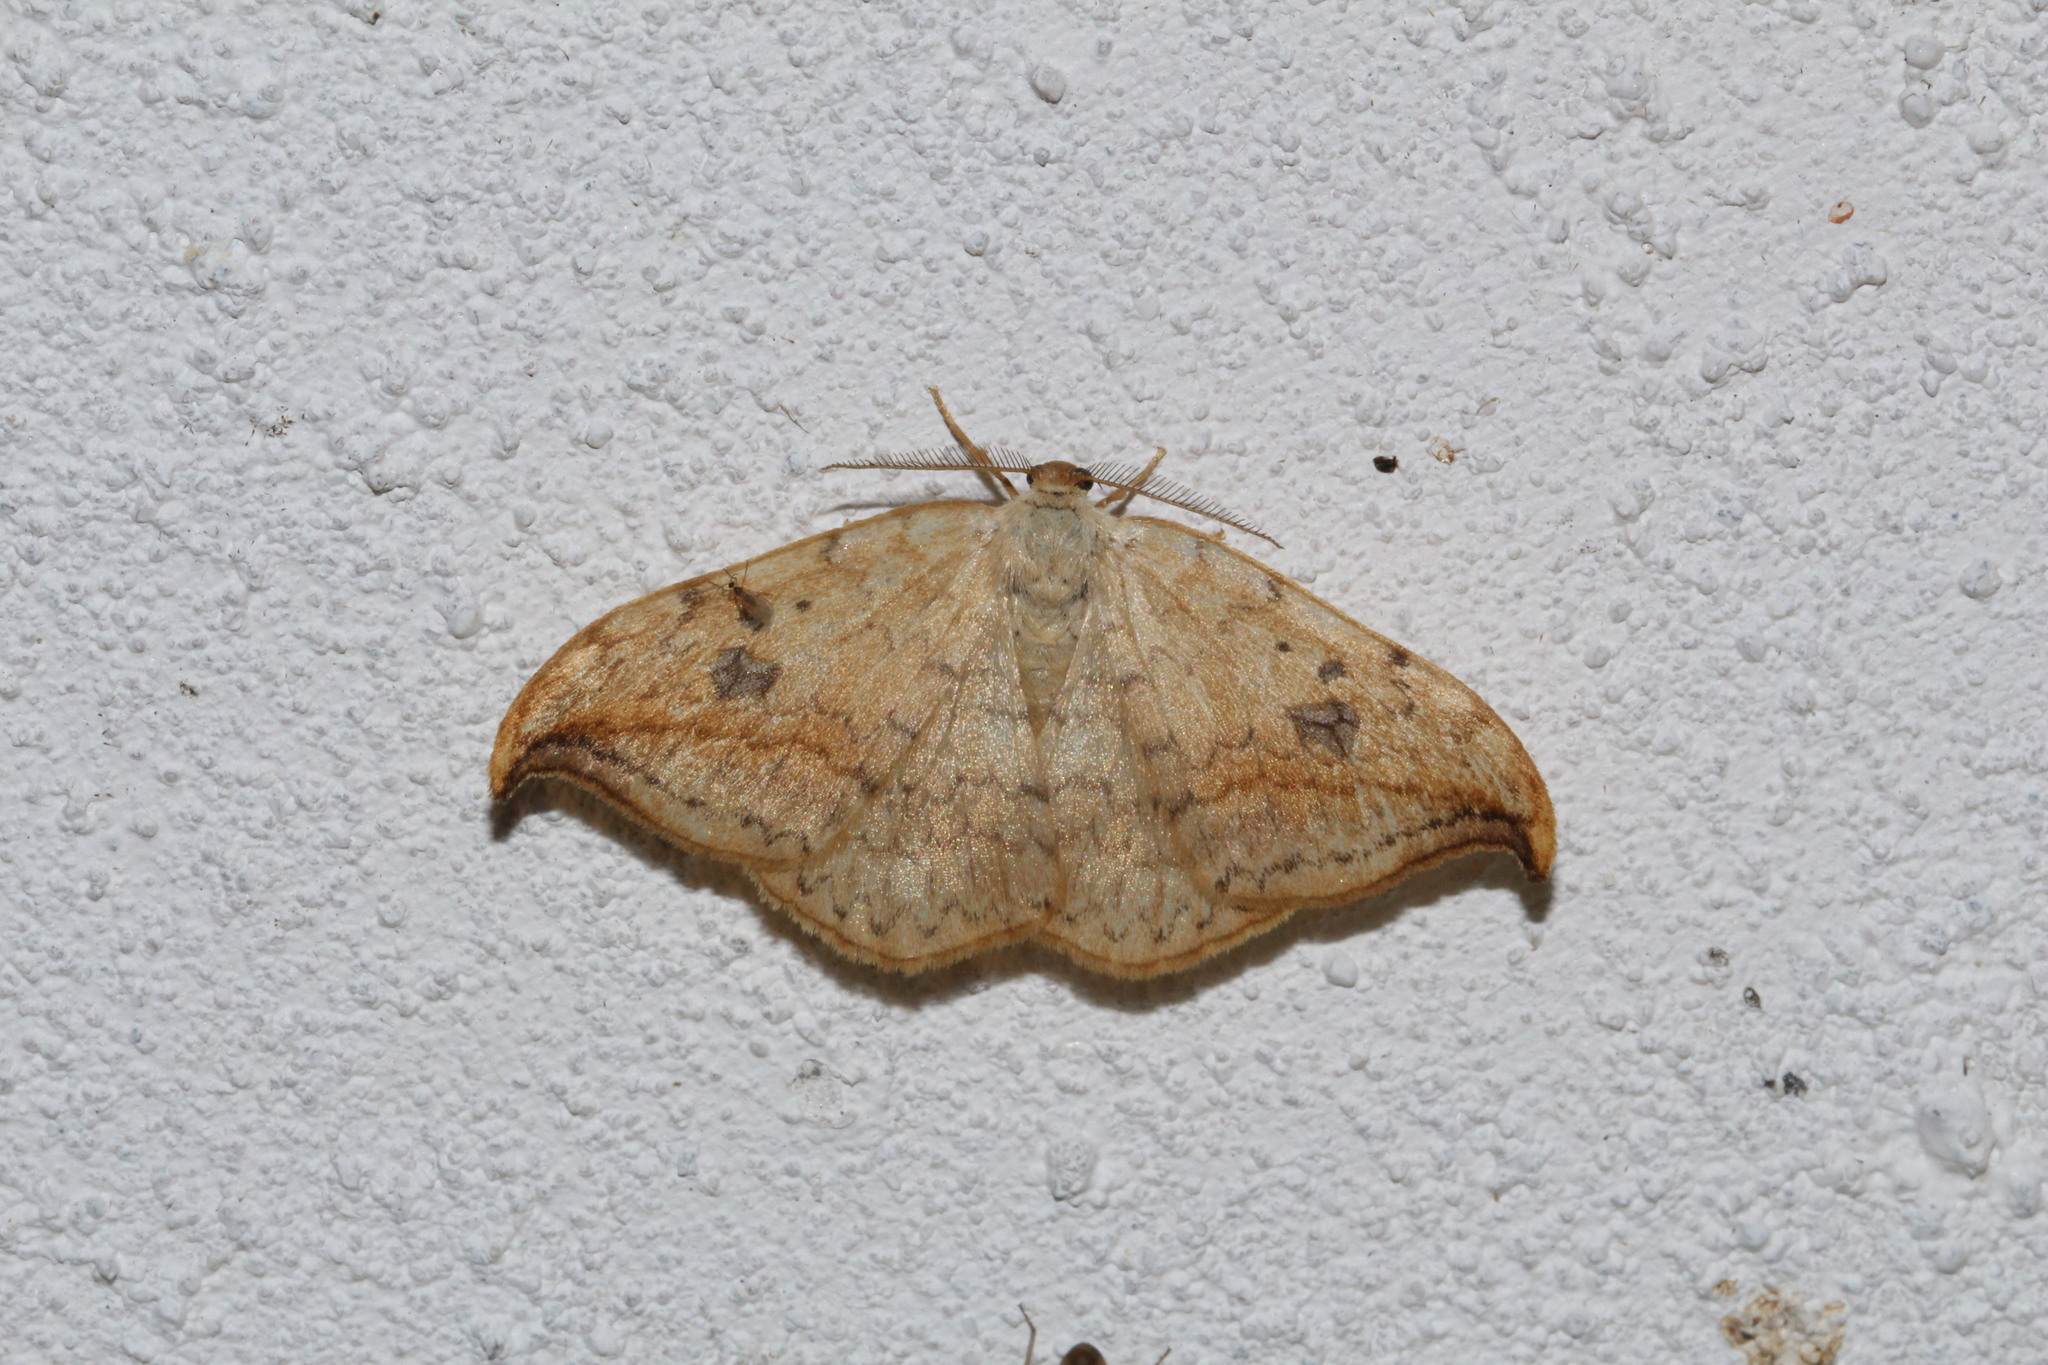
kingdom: Animalia
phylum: Arthropoda
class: Insecta
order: Lepidoptera
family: Drepanidae
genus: Drepana
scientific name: Drepana falcataria
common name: Pebble hook-tip
